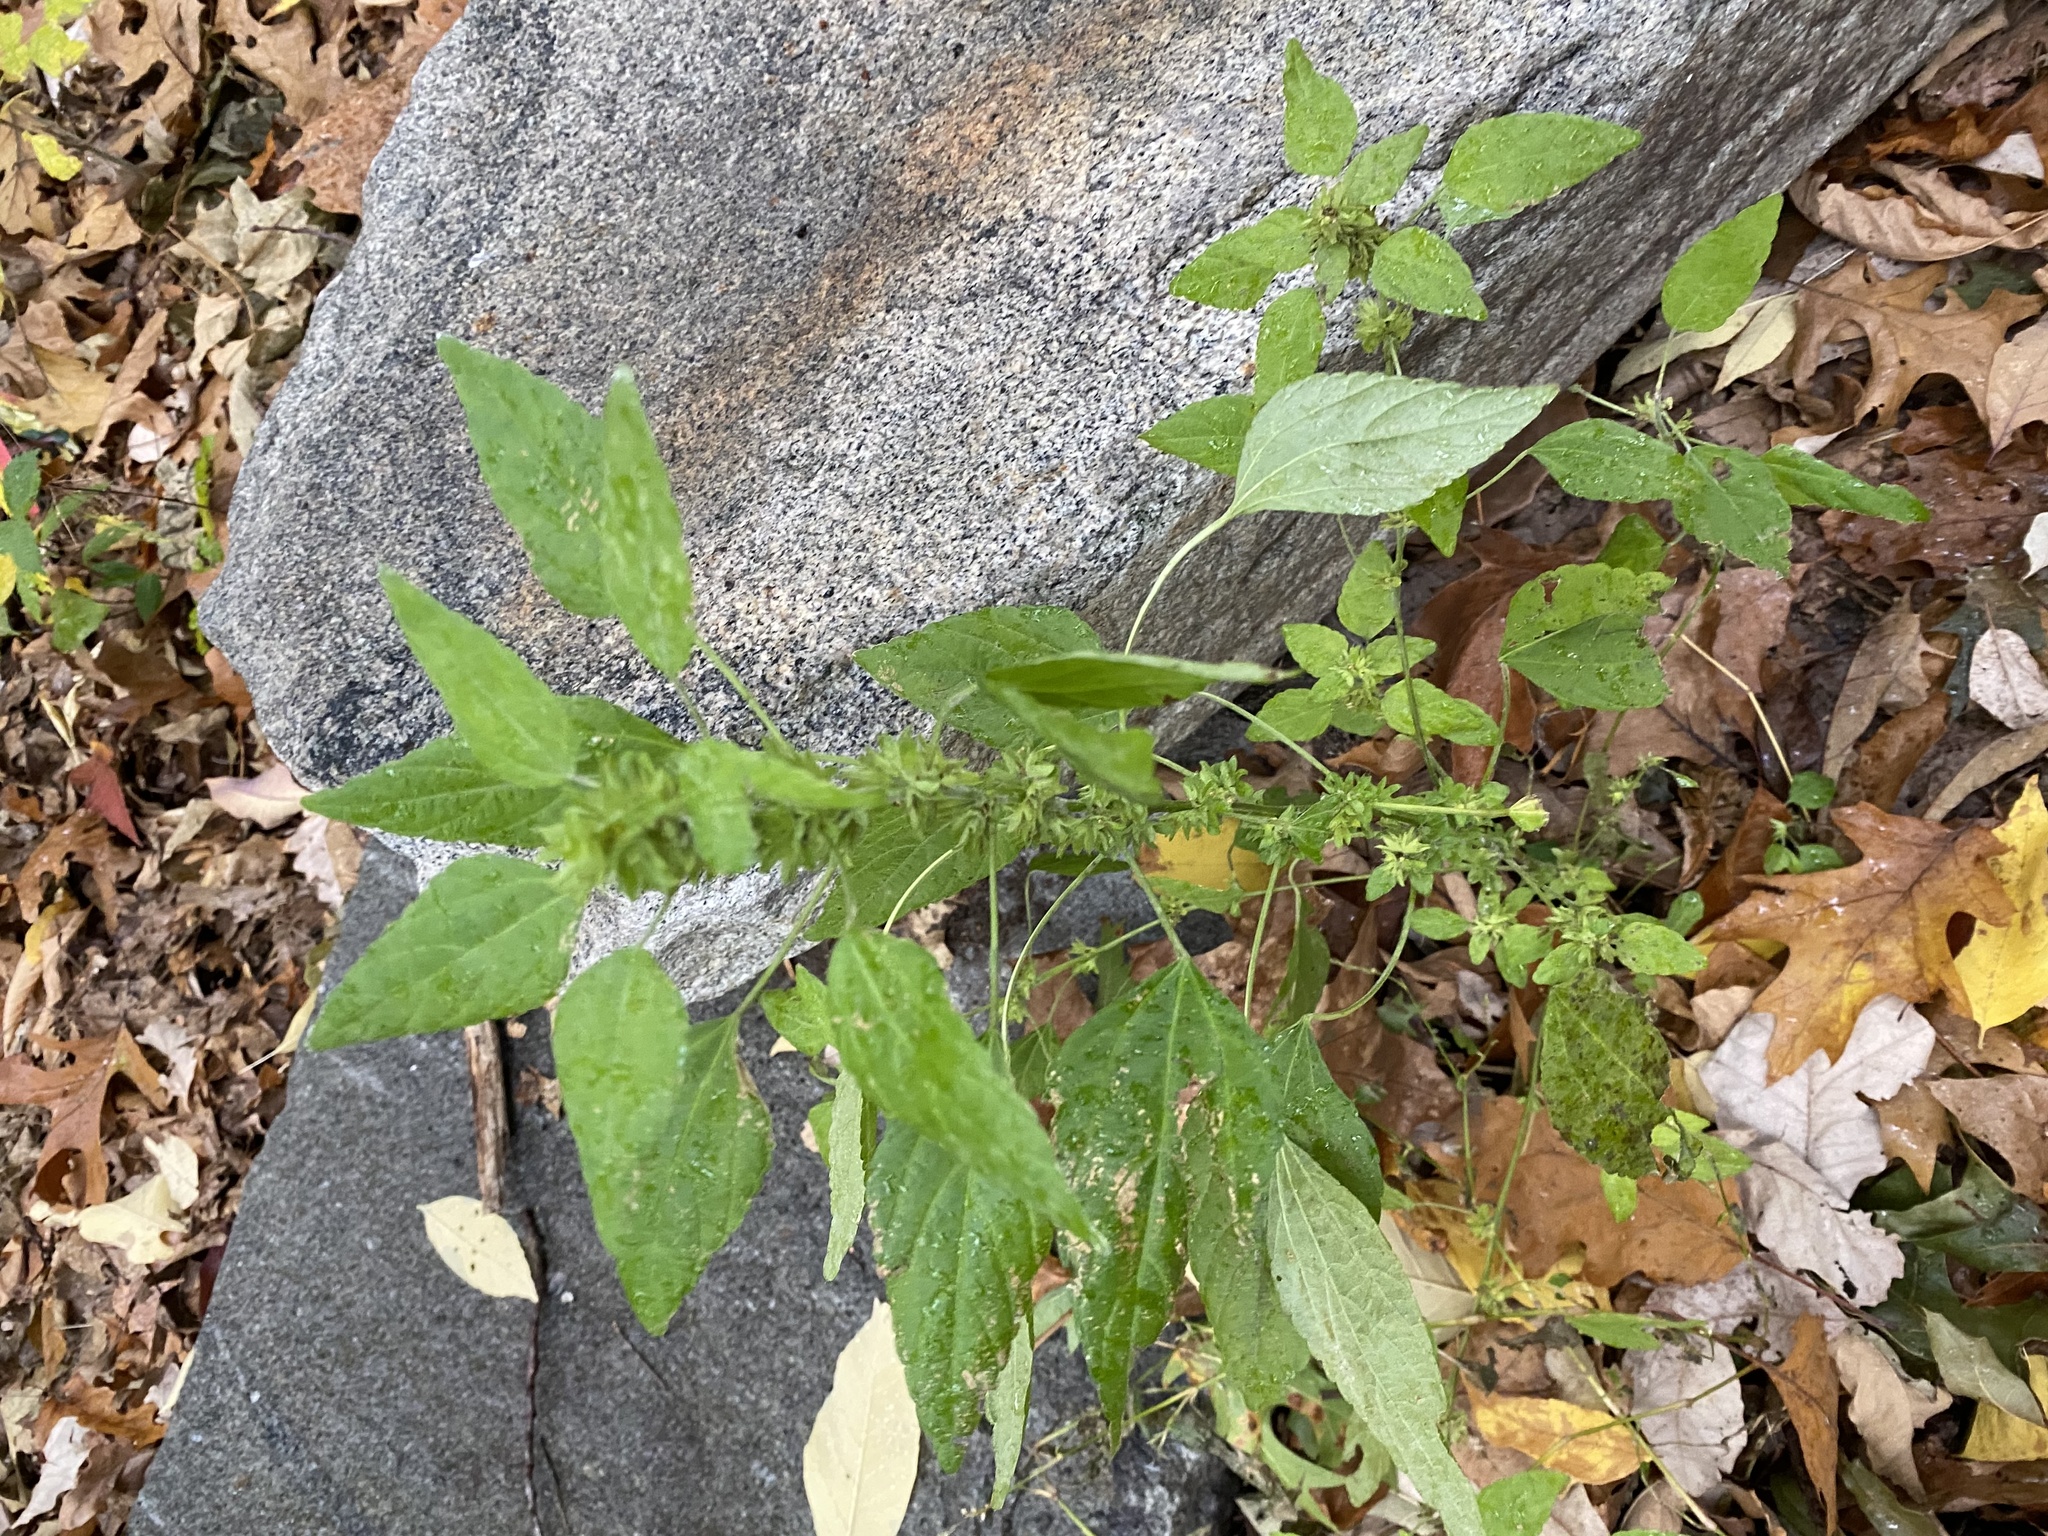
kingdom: Plantae
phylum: Tracheophyta
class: Magnoliopsida
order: Malpighiales
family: Euphorbiaceae
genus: Acalypha
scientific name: Acalypha rhomboidea
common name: Rhombic copperleaf
